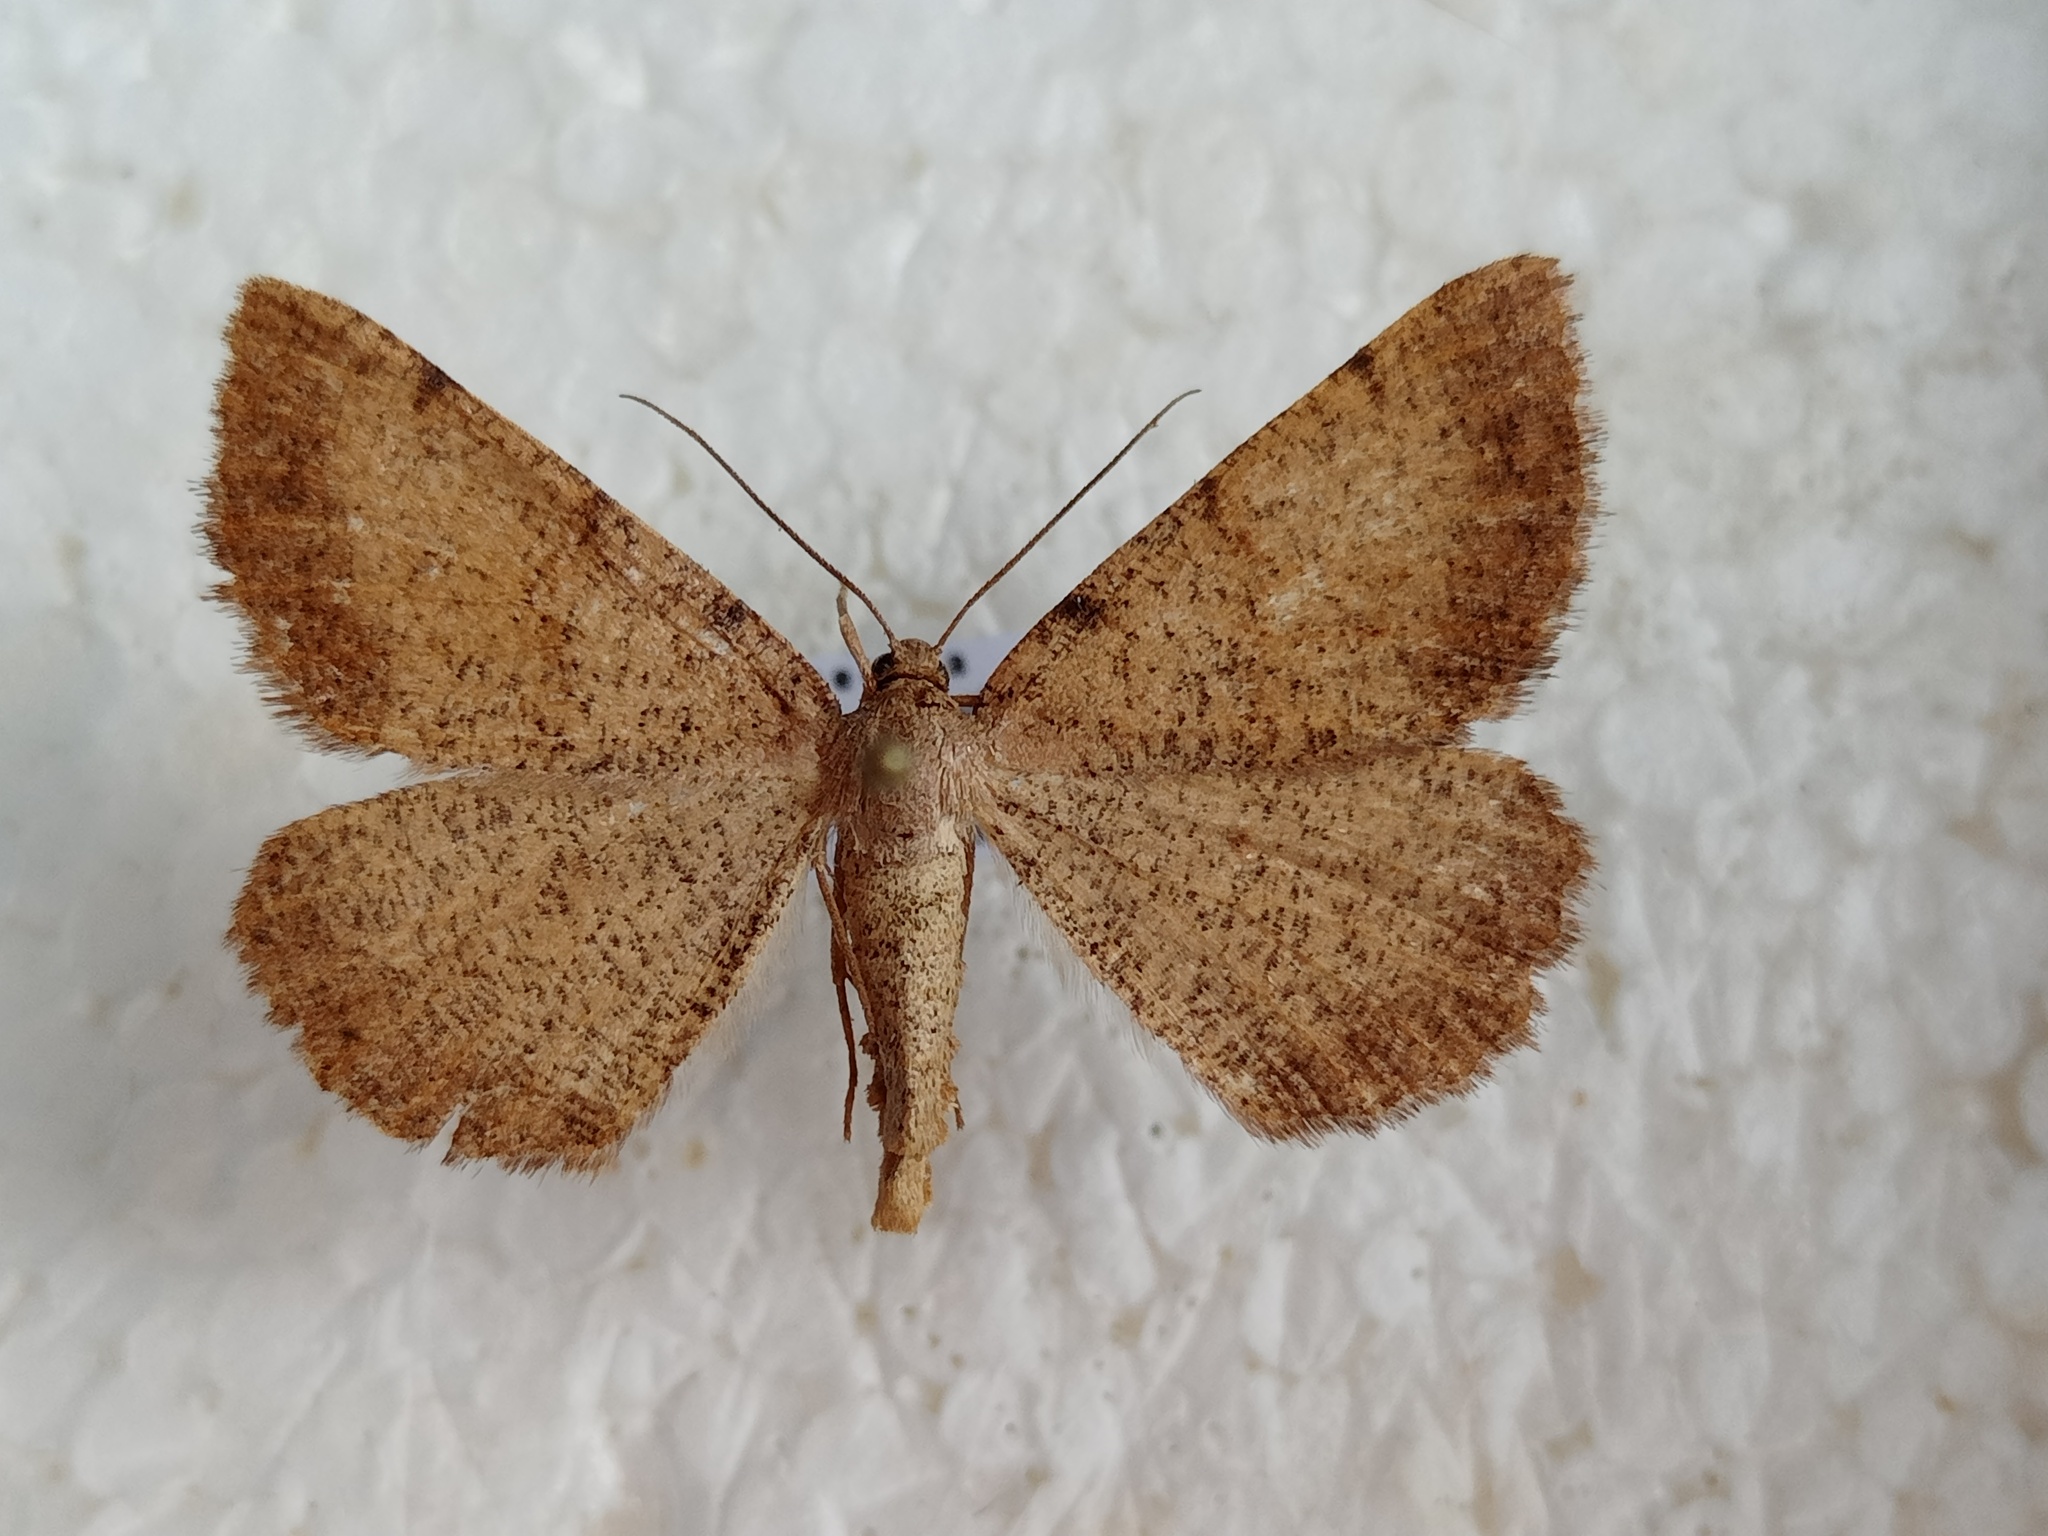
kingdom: Animalia
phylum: Arthropoda
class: Insecta
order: Lepidoptera
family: Geometridae
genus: Selidosema
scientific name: Selidosema brunnearia
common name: Bordered grey
